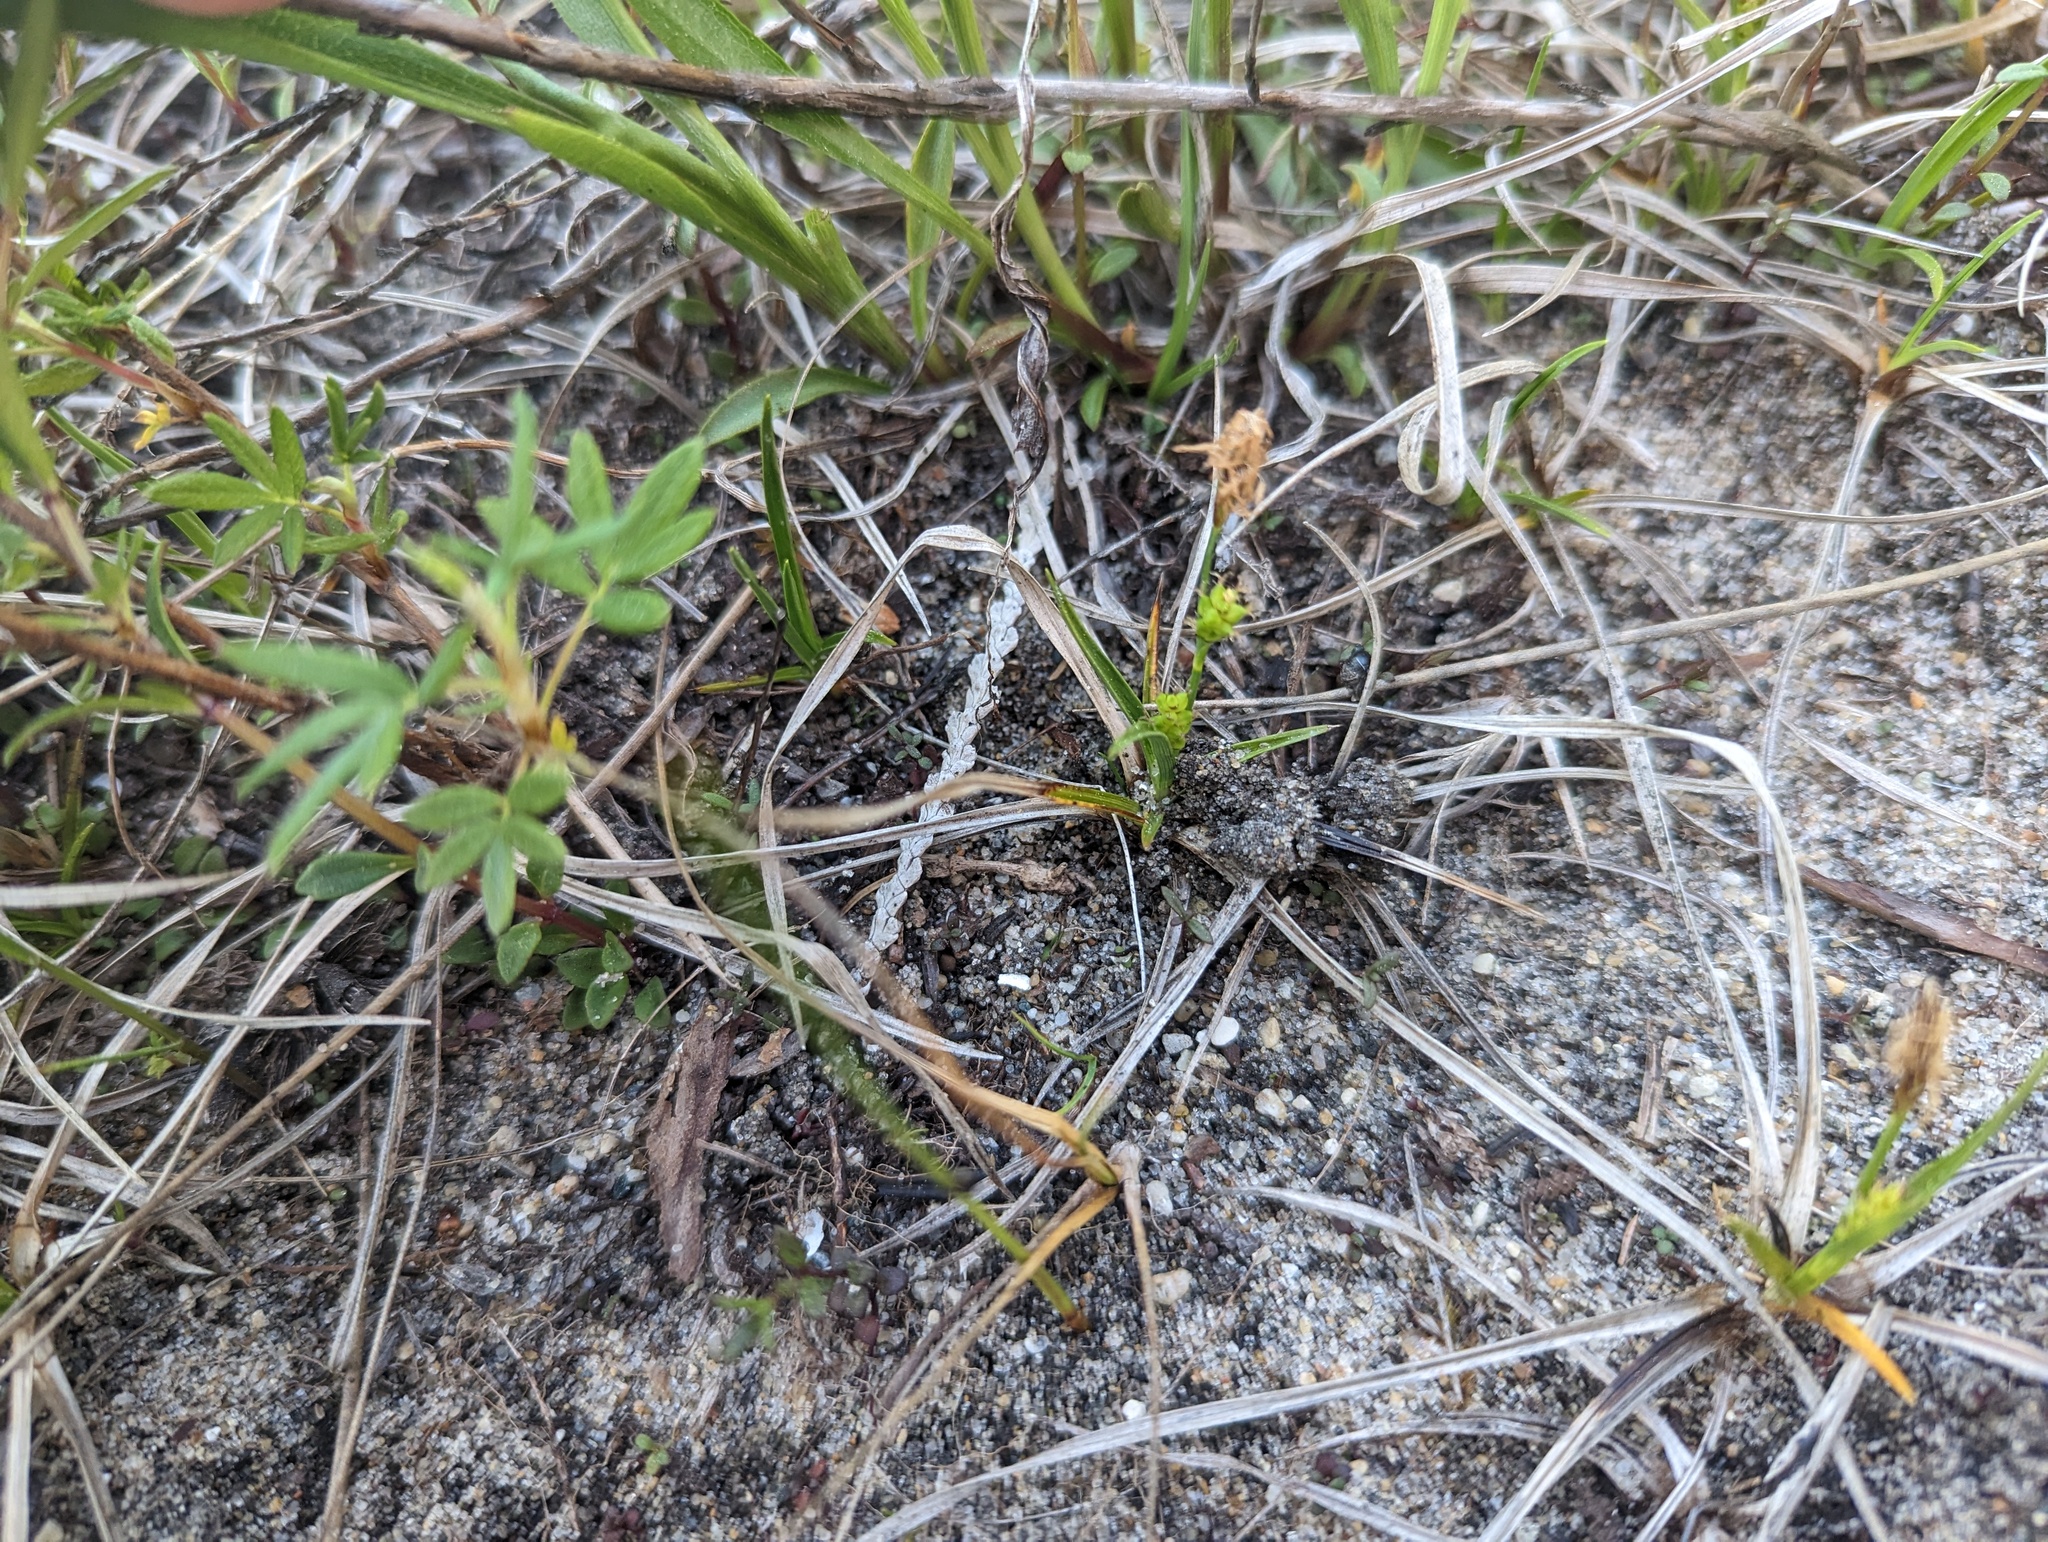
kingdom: Plantae
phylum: Tracheophyta
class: Liliopsida
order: Poales
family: Cyperaceae
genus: Carex
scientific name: Carex crawei
